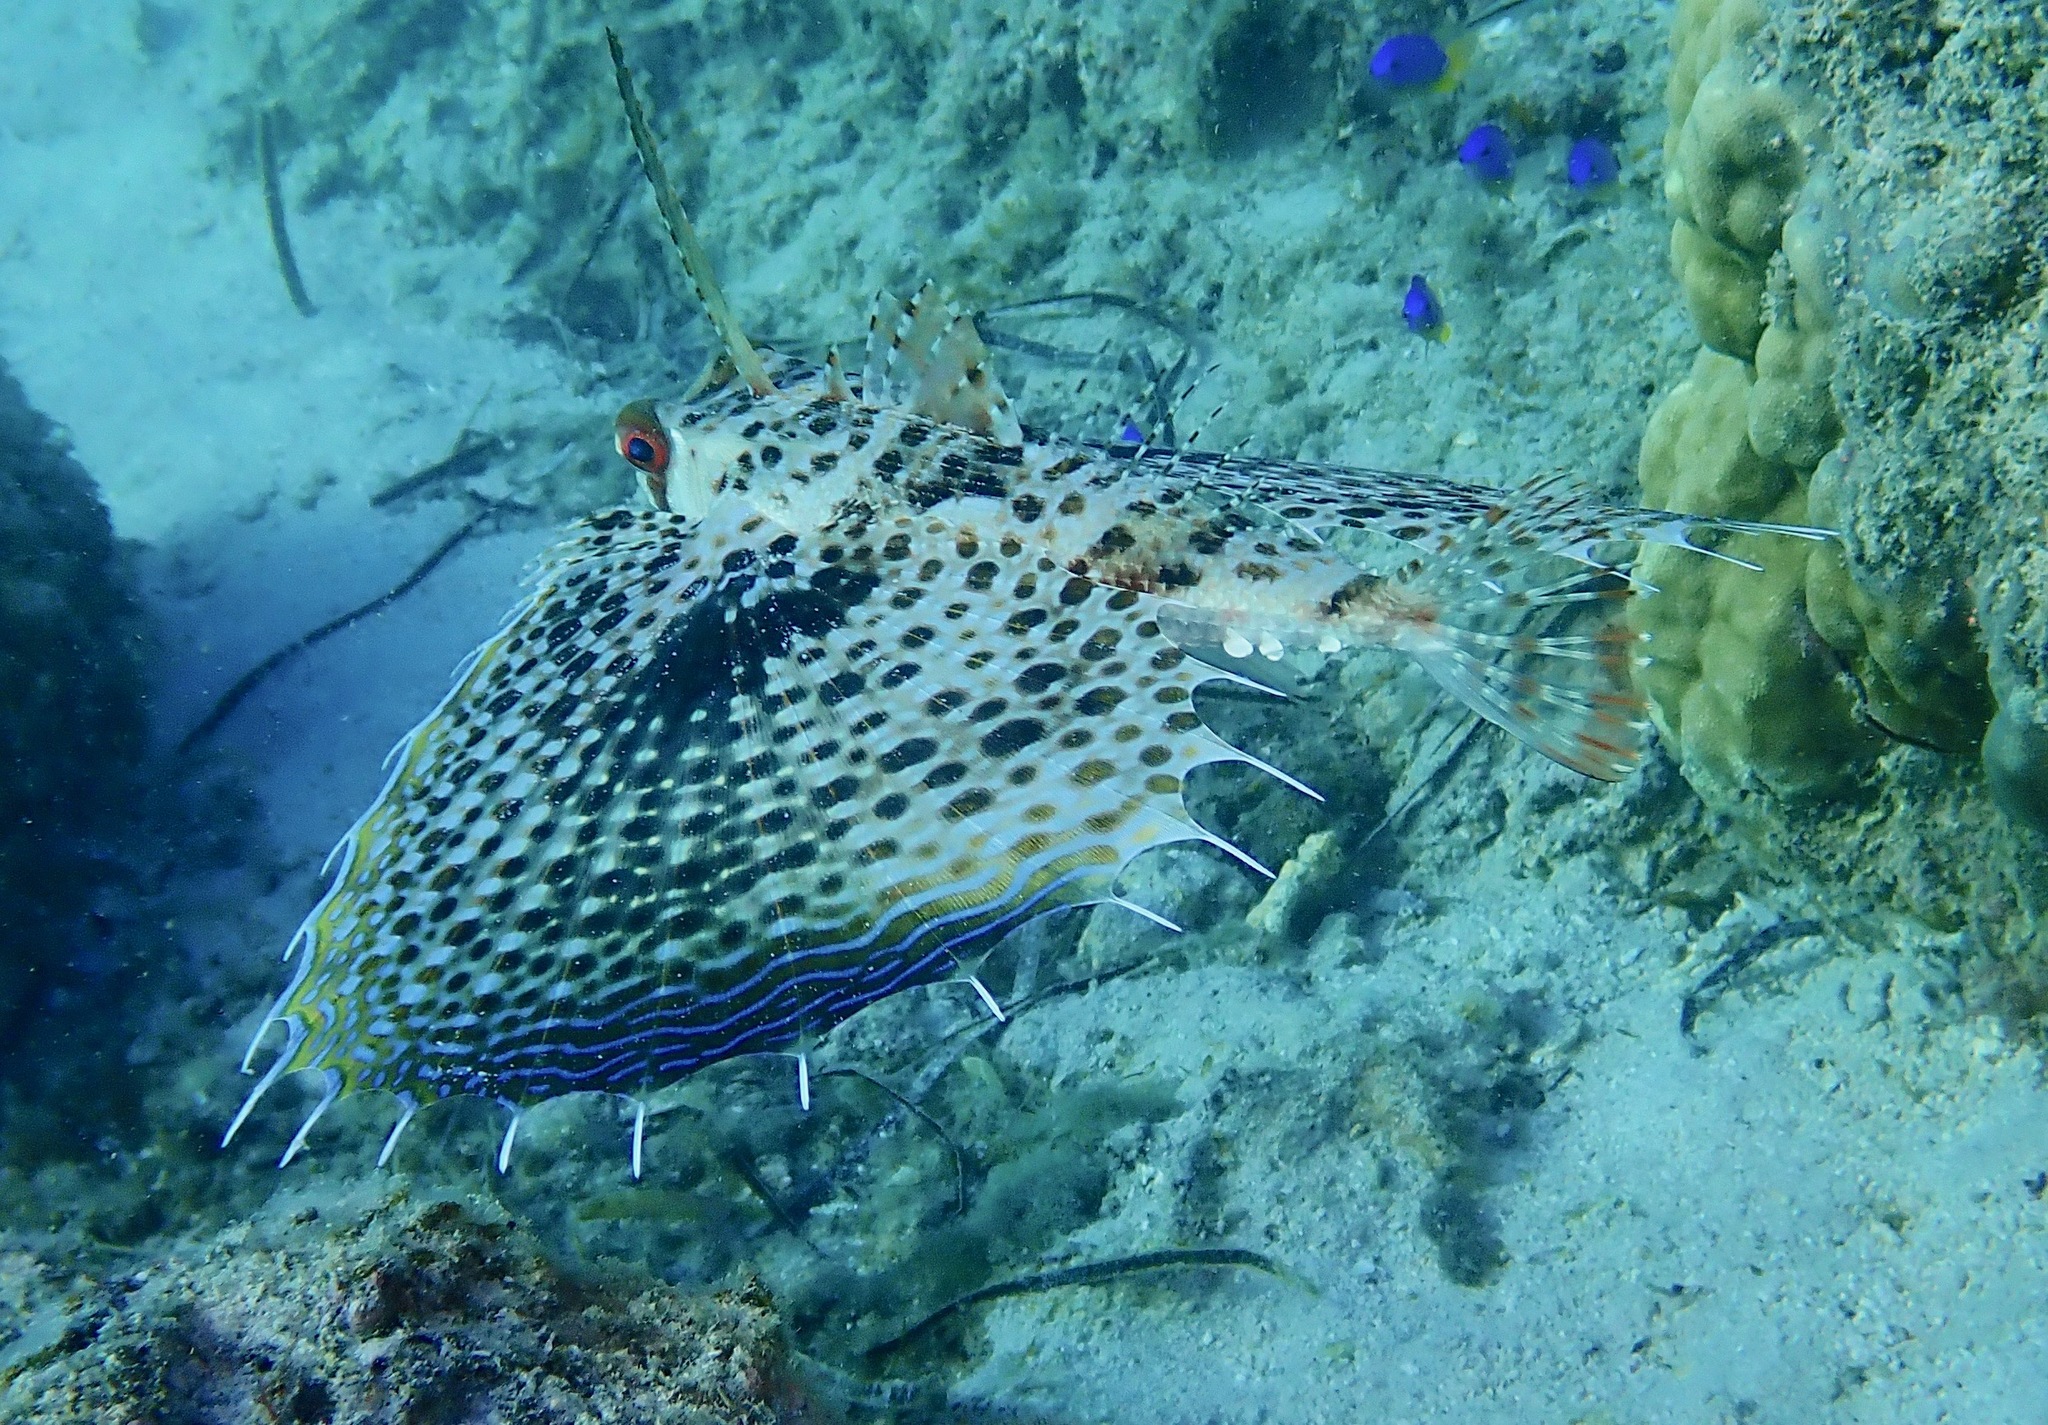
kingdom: Animalia
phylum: Chordata
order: Scorpaeniformes
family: Dactylopteridae
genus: Dactyloptena
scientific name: Dactyloptena orientalis
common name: Flying gurnard
